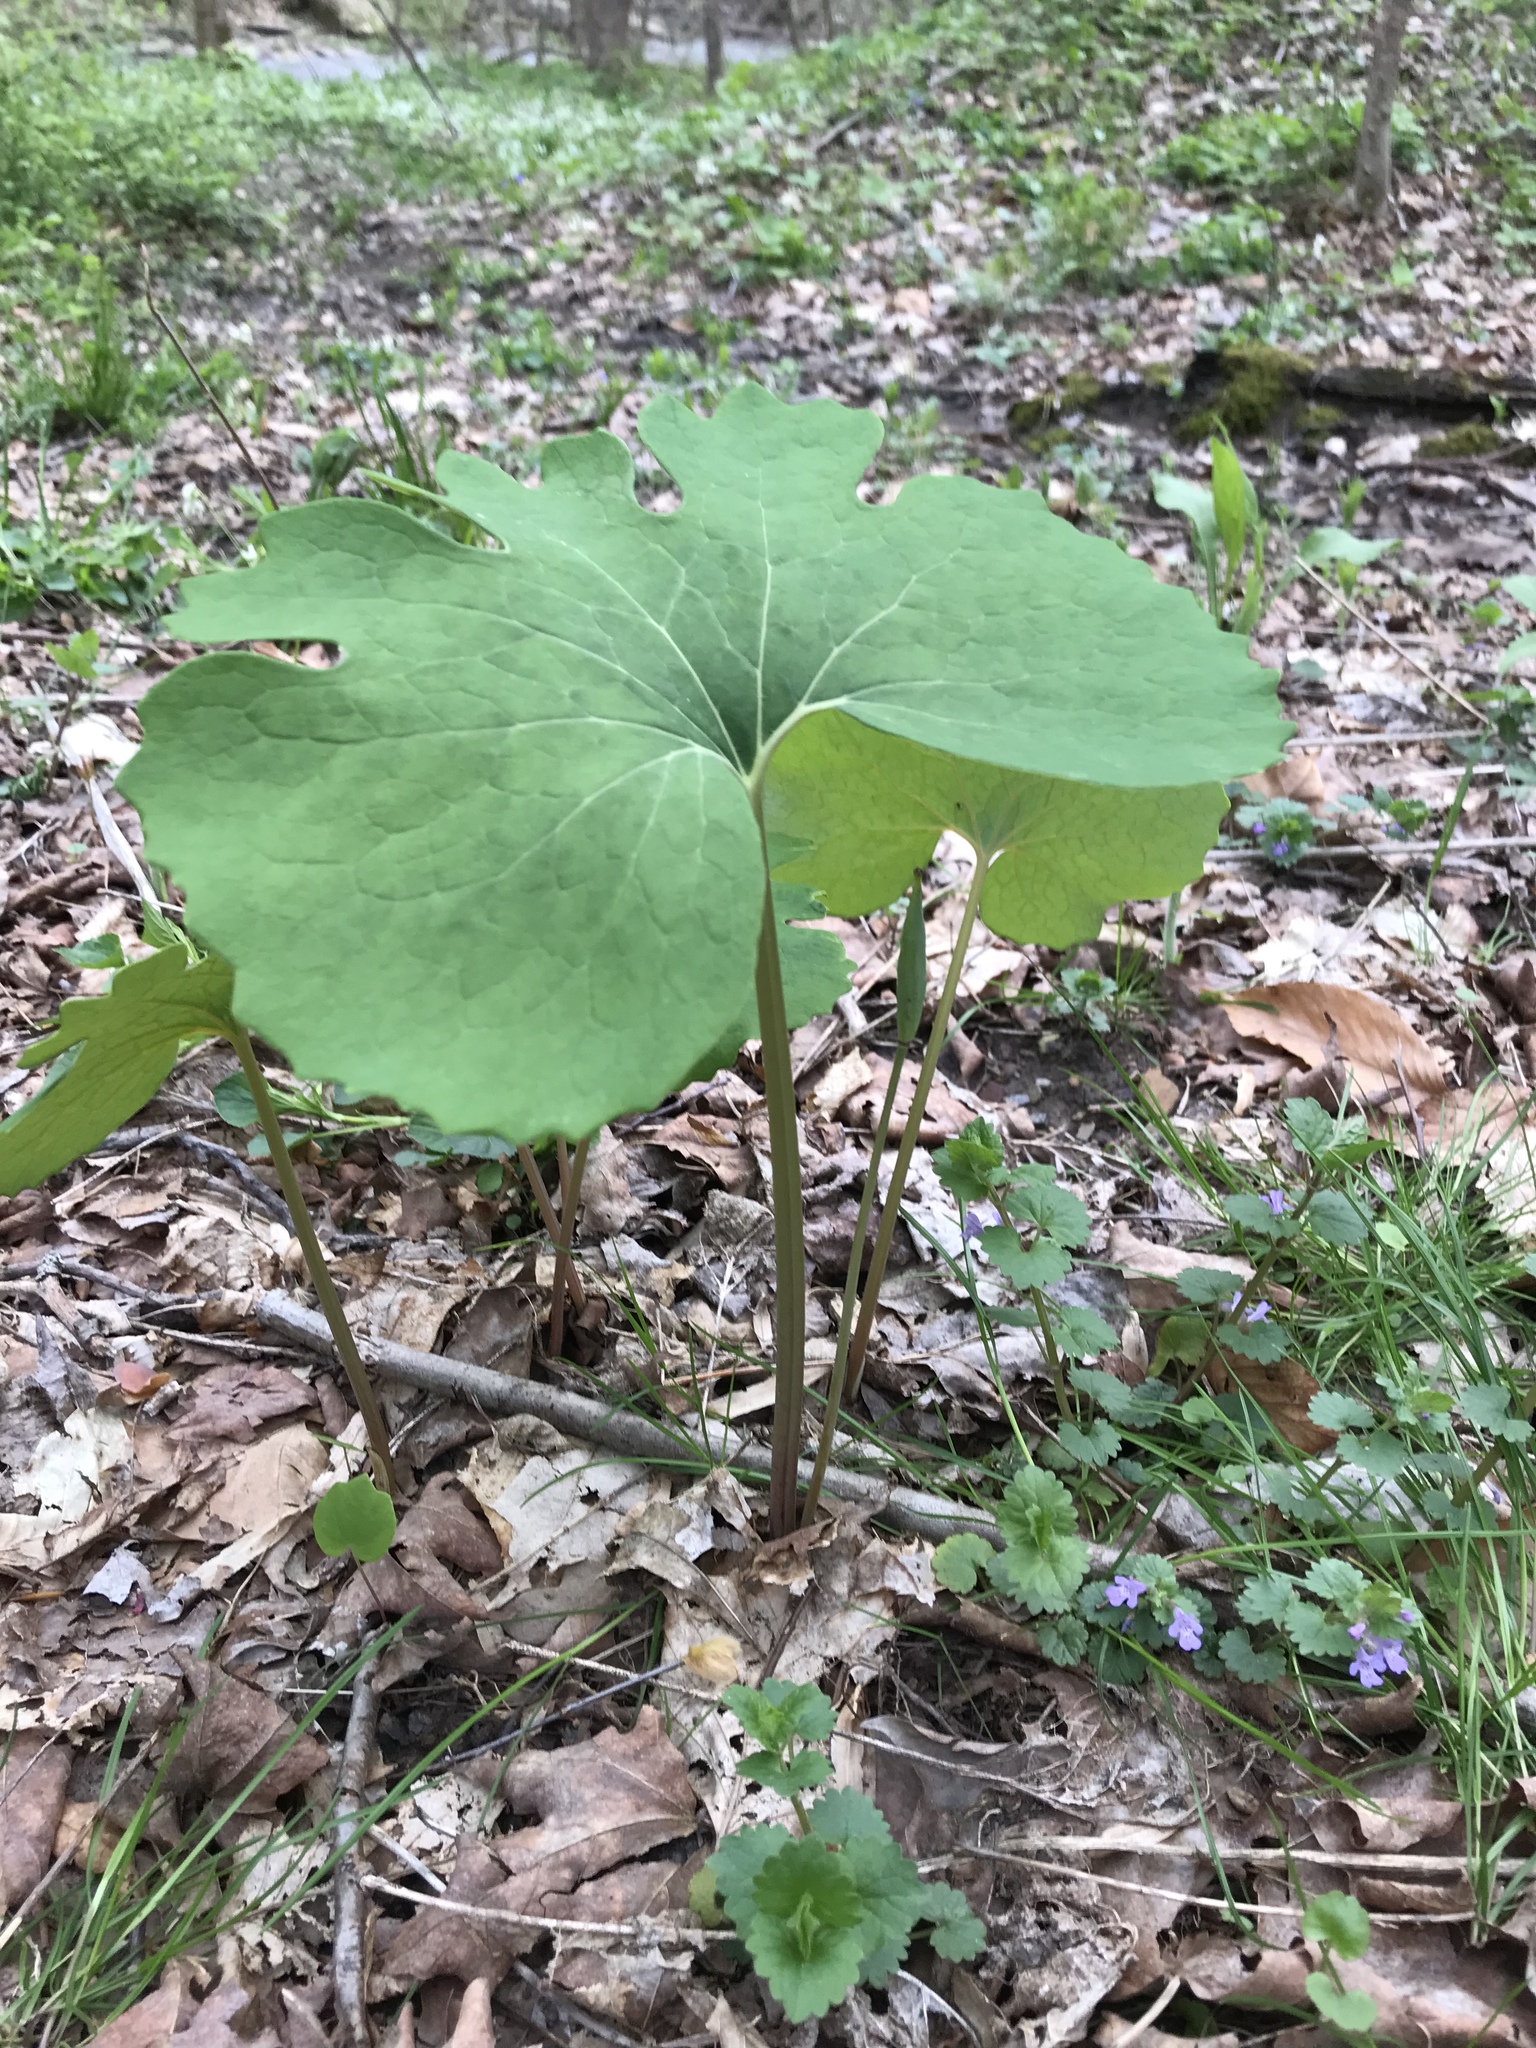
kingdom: Plantae
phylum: Tracheophyta
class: Magnoliopsida
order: Ranunculales
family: Papaveraceae
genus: Sanguinaria
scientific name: Sanguinaria canadensis
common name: Bloodroot
